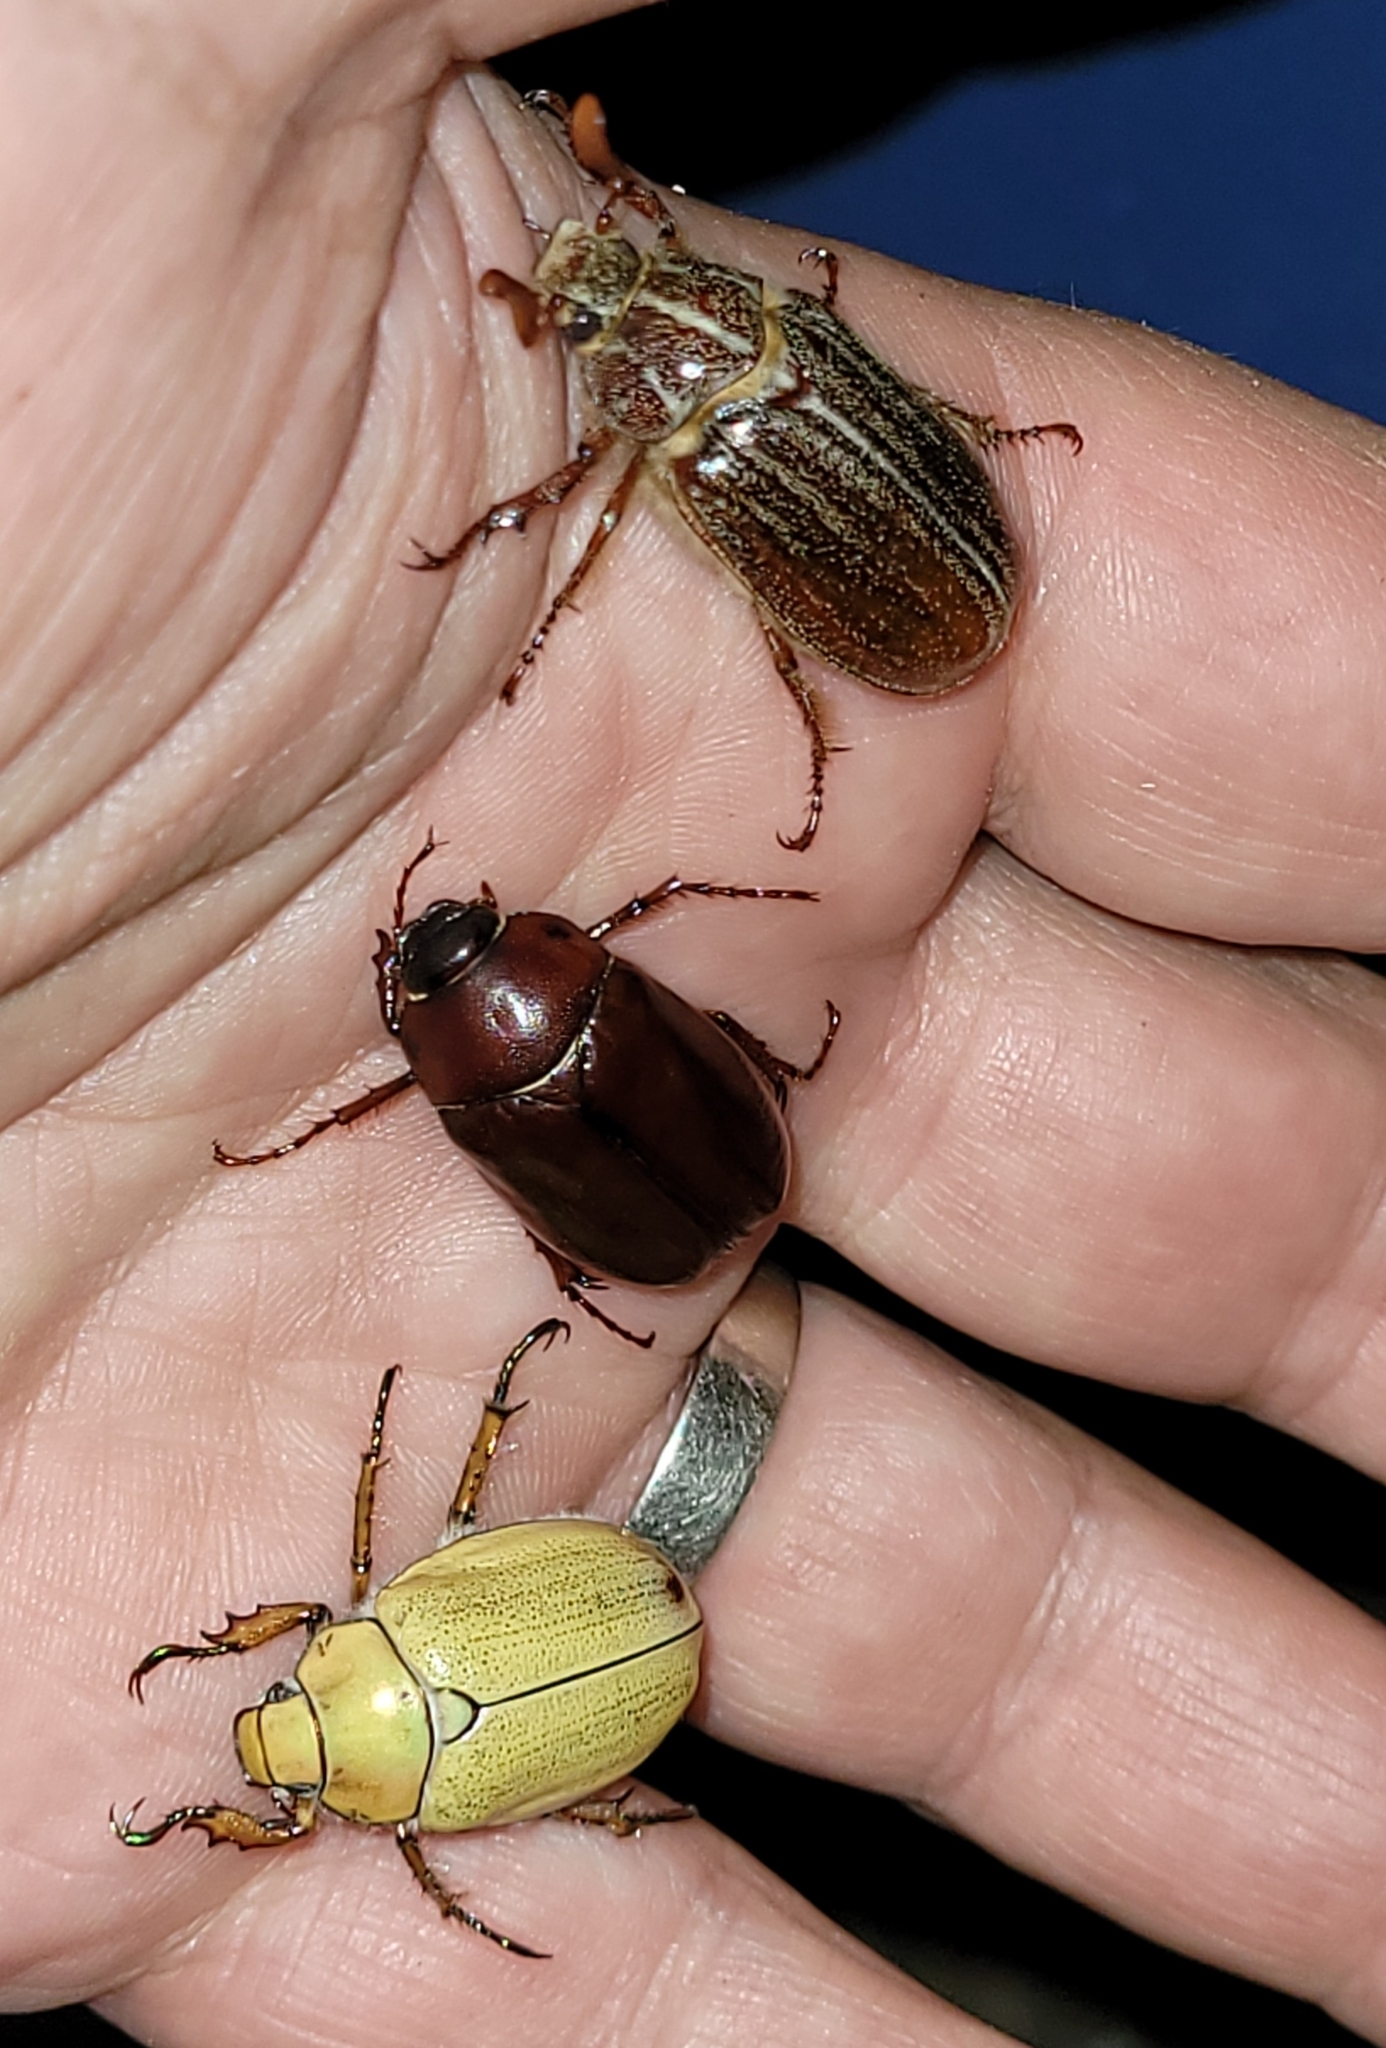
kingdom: Animalia
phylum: Arthropoda
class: Insecta
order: Coleoptera
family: Scarabaeidae
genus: Cotalpa
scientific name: Cotalpa lanigera
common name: Goldsmith beetle
